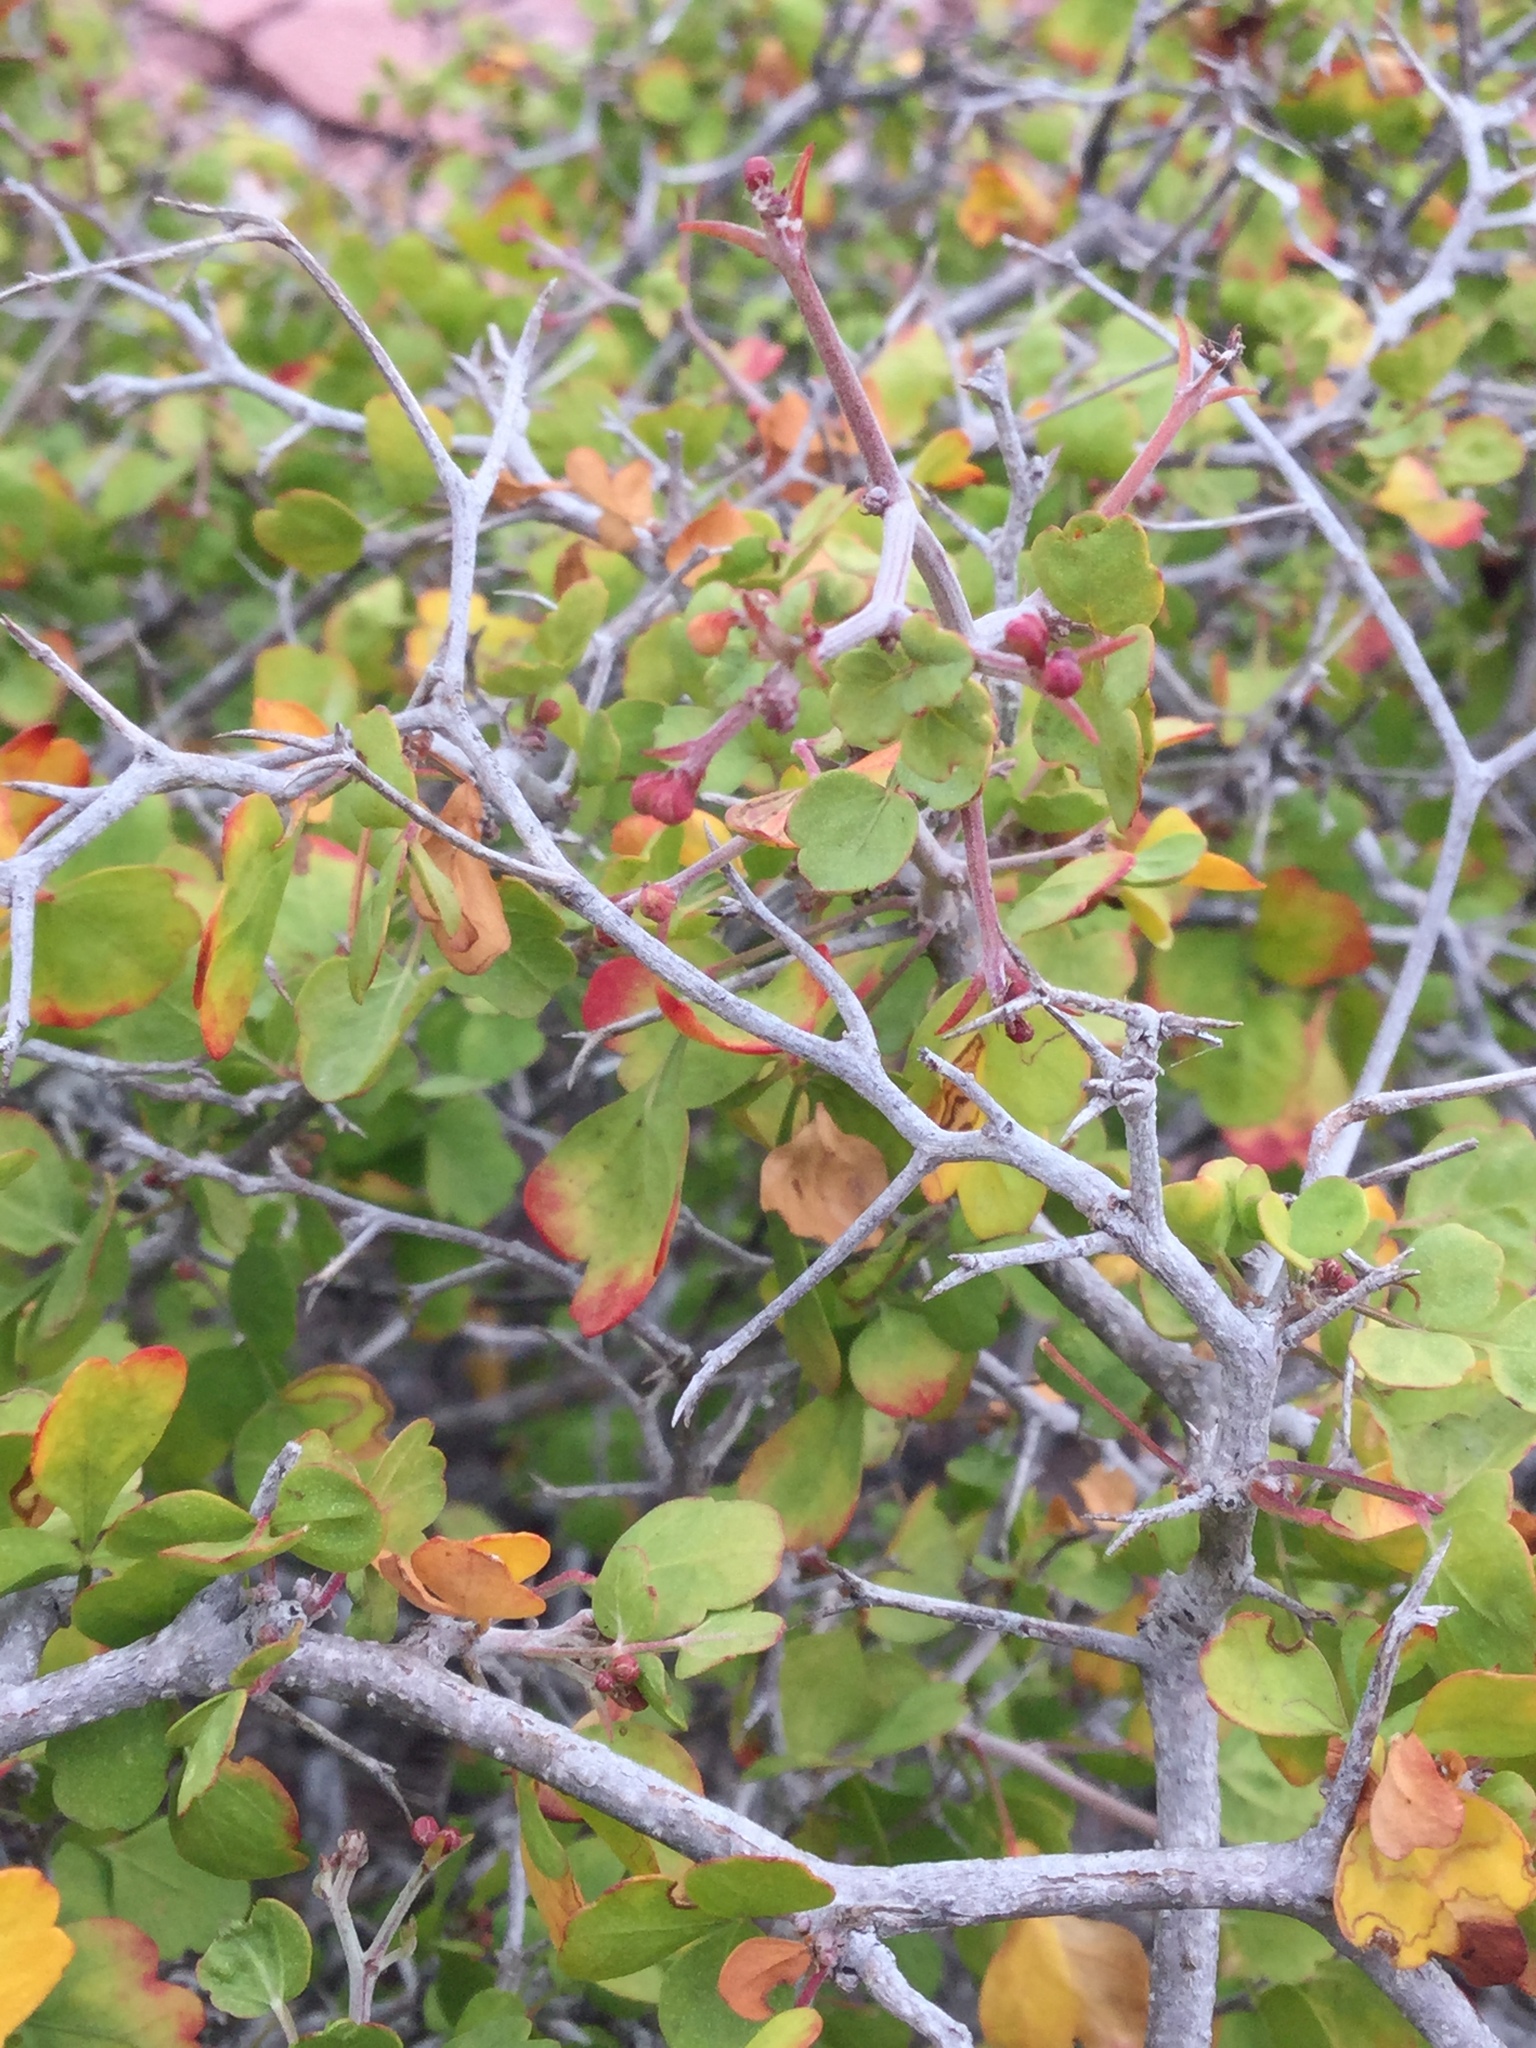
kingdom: Plantae
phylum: Tracheophyta
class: Magnoliopsida
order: Sapindales
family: Sapindaceae
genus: Serjania
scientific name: Serjania spinosa
